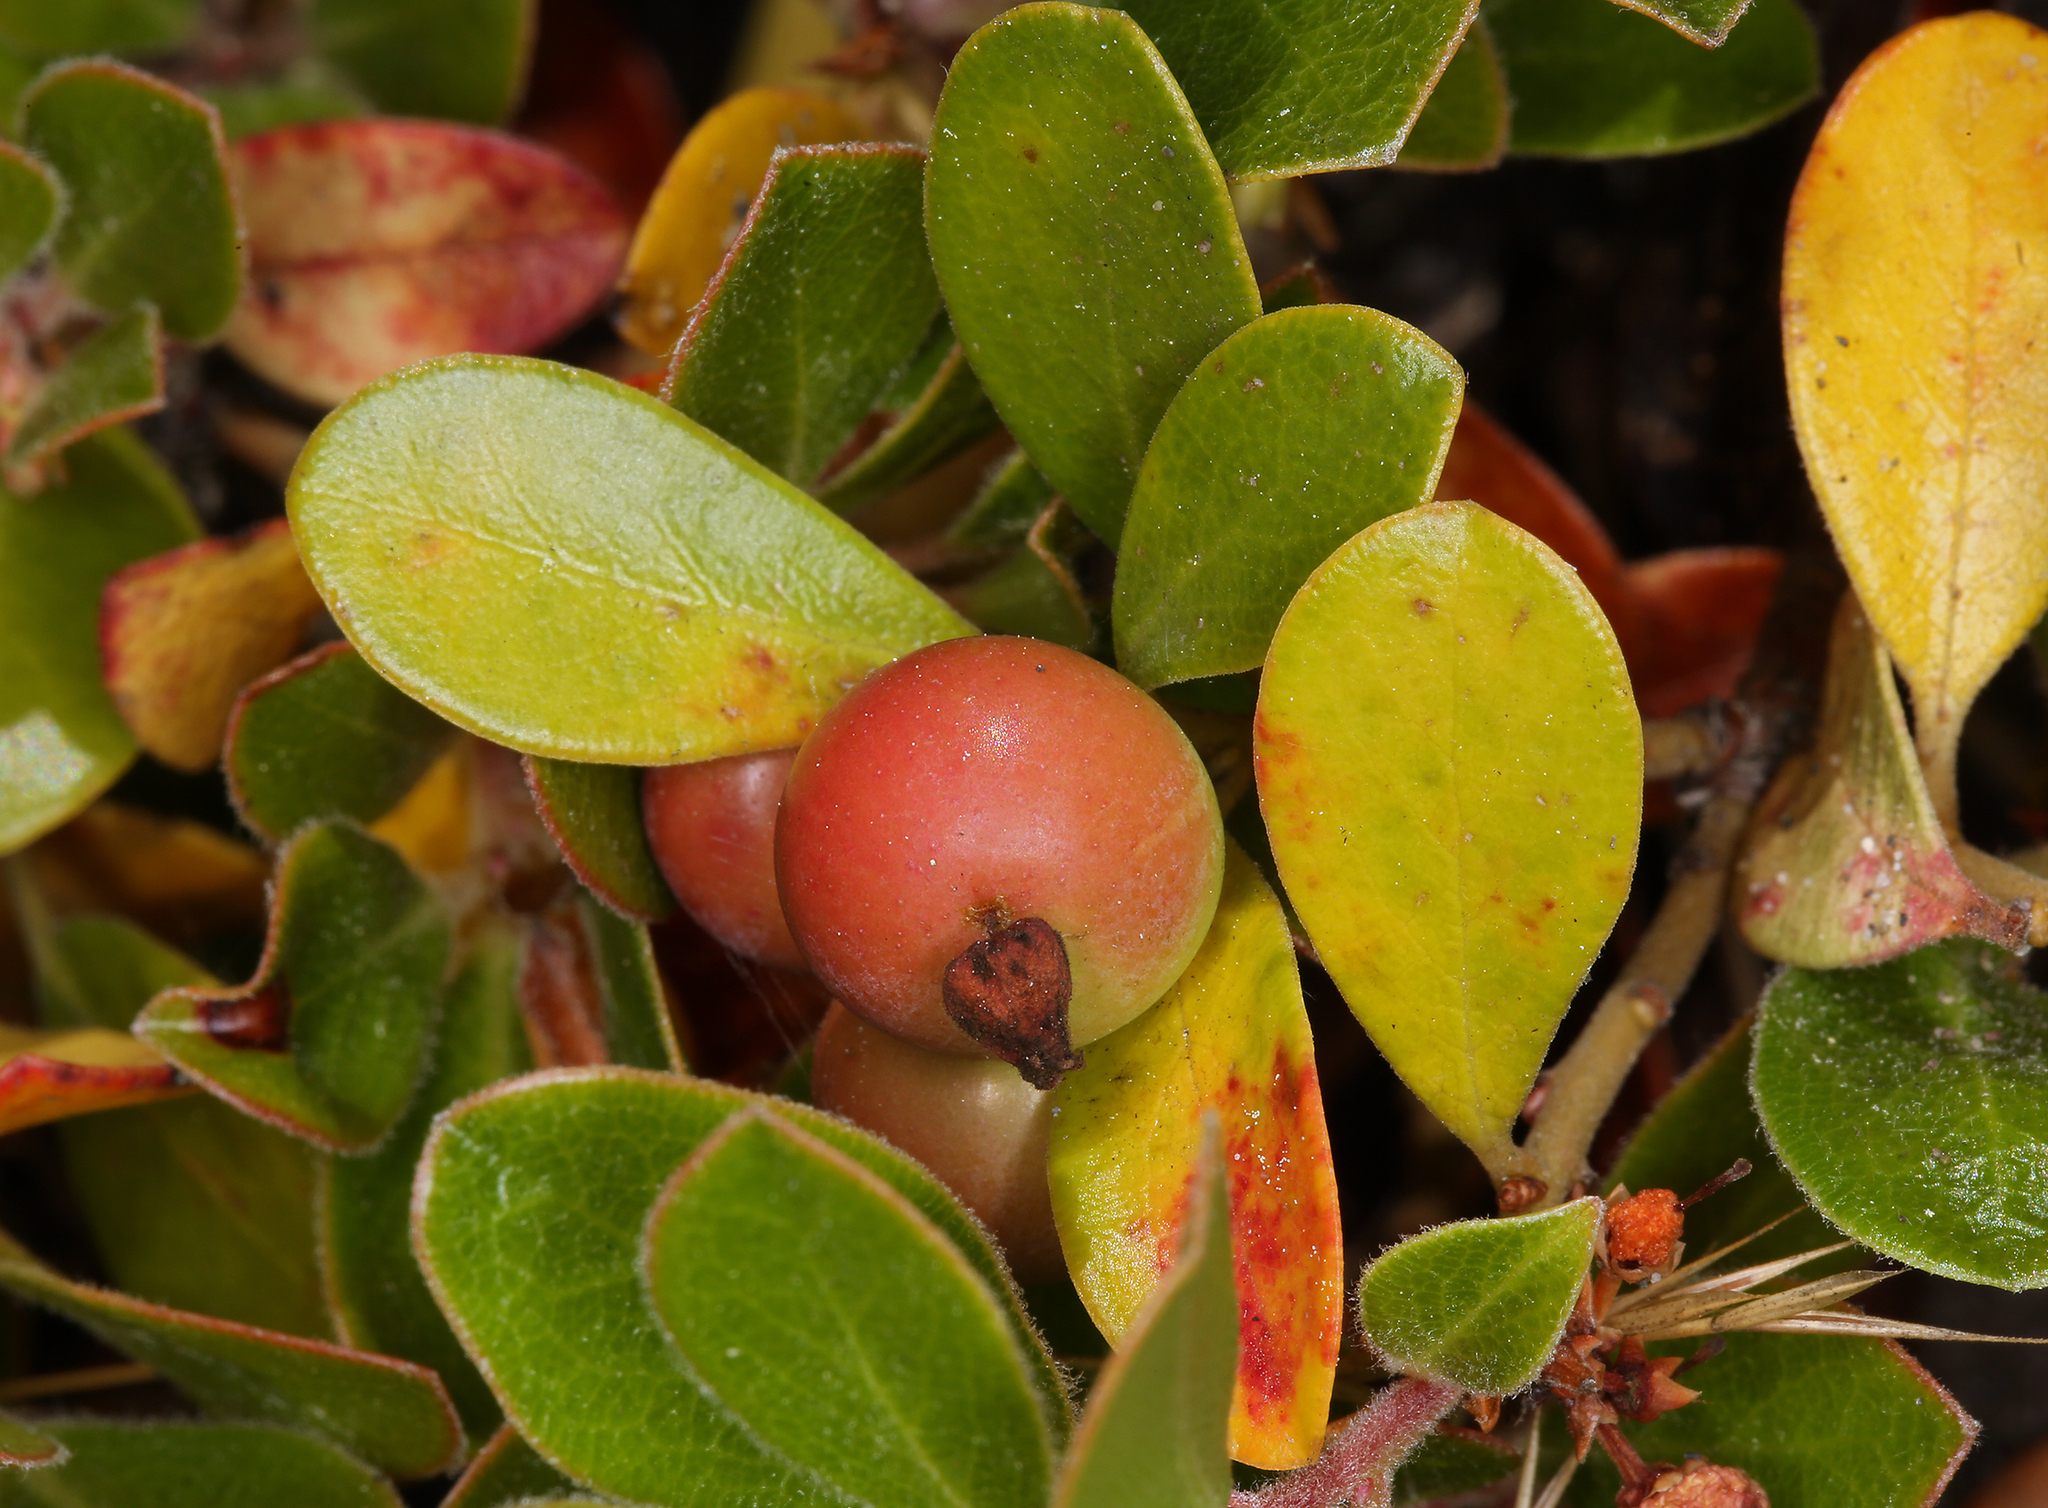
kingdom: Plantae
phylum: Tracheophyta
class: Magnoliopsida
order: Ericales
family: Ericaceae
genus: Arctostaphylos
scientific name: Arctostaphylos uva-ursi
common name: Bearberry
